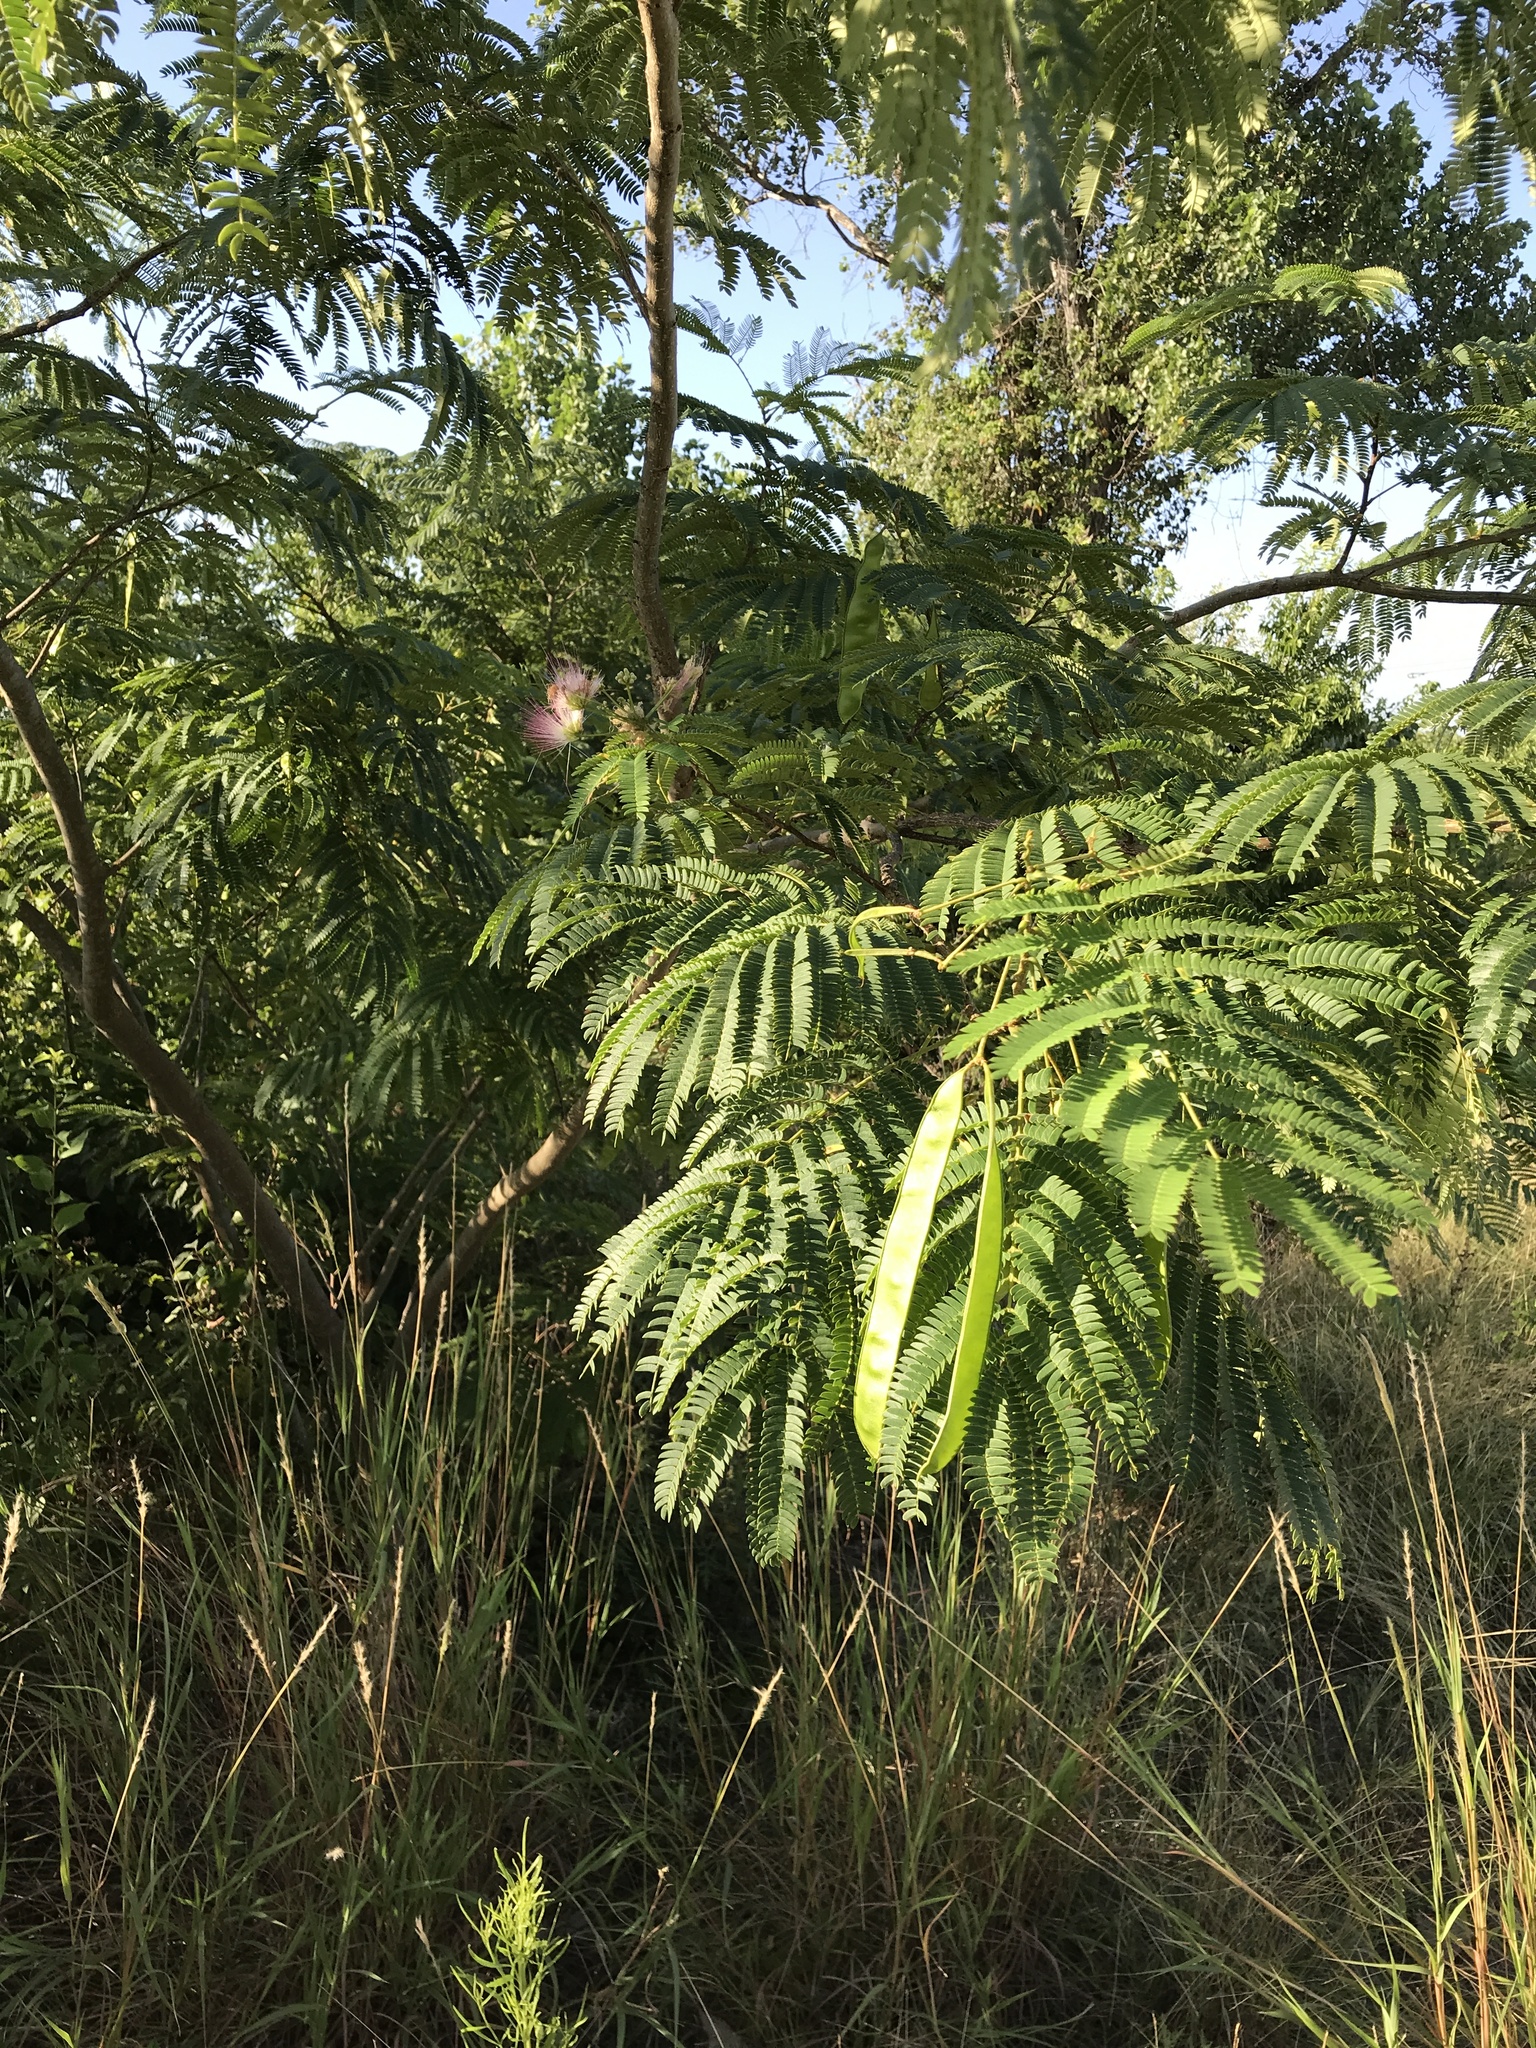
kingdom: Plantae
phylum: Tracheophyta
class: Magnoliopsida
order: Fabales
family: Fabaceae
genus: Albizia
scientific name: Albizia julibrissin
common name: Silktree
